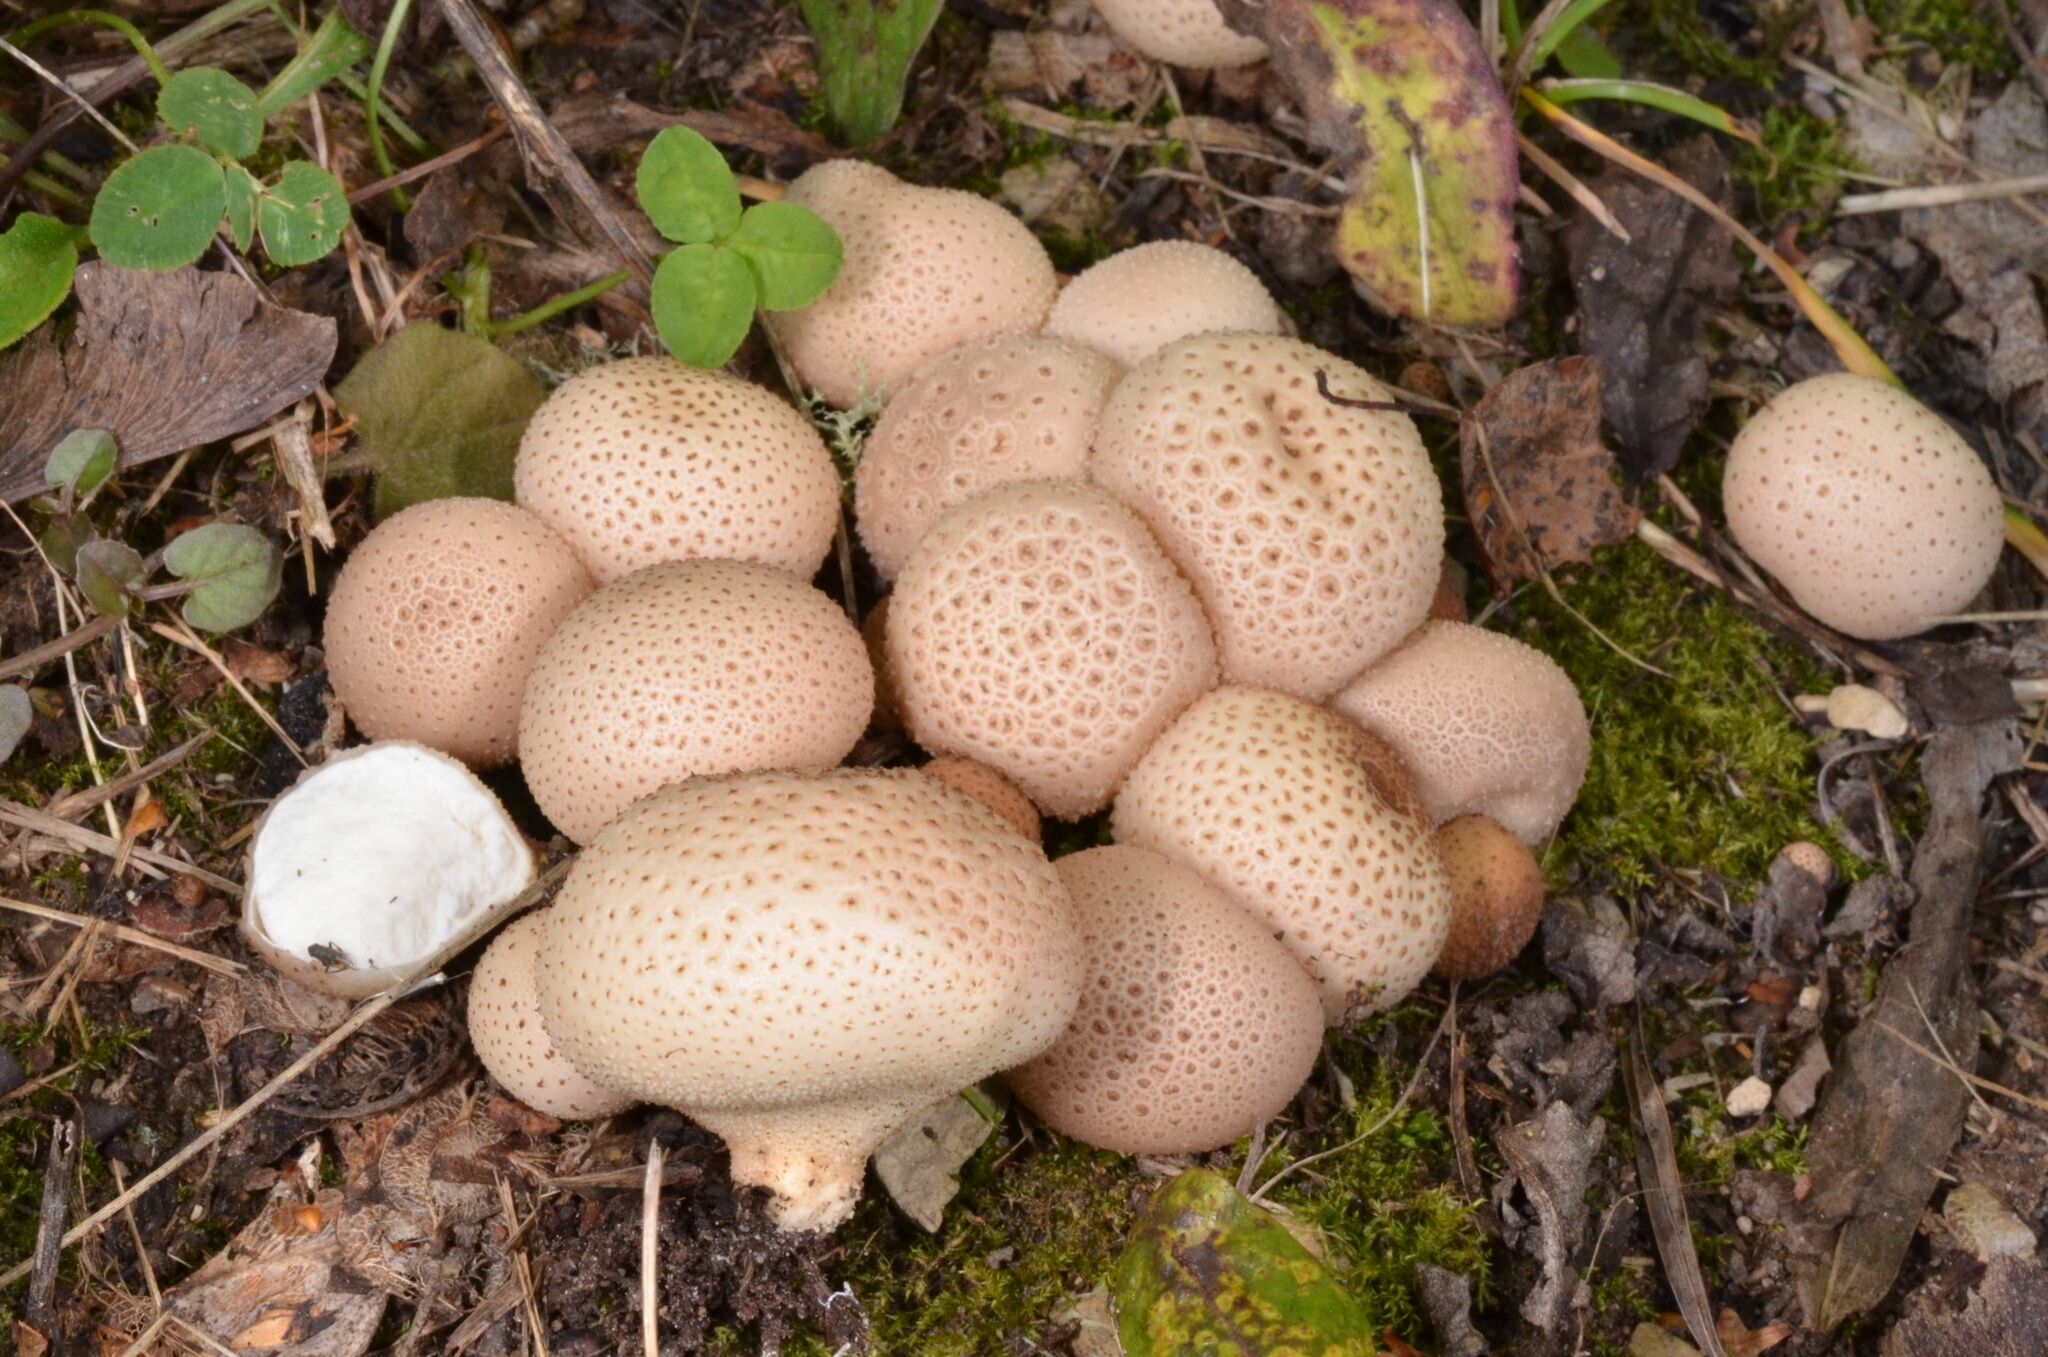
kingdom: Fungi
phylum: Basidiomycota
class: Agaricomycetes
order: Agaricales
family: Lycoperdaceae
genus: Apioperdon
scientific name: Apioperdon pyriforme
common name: Pear-shaped puffball
